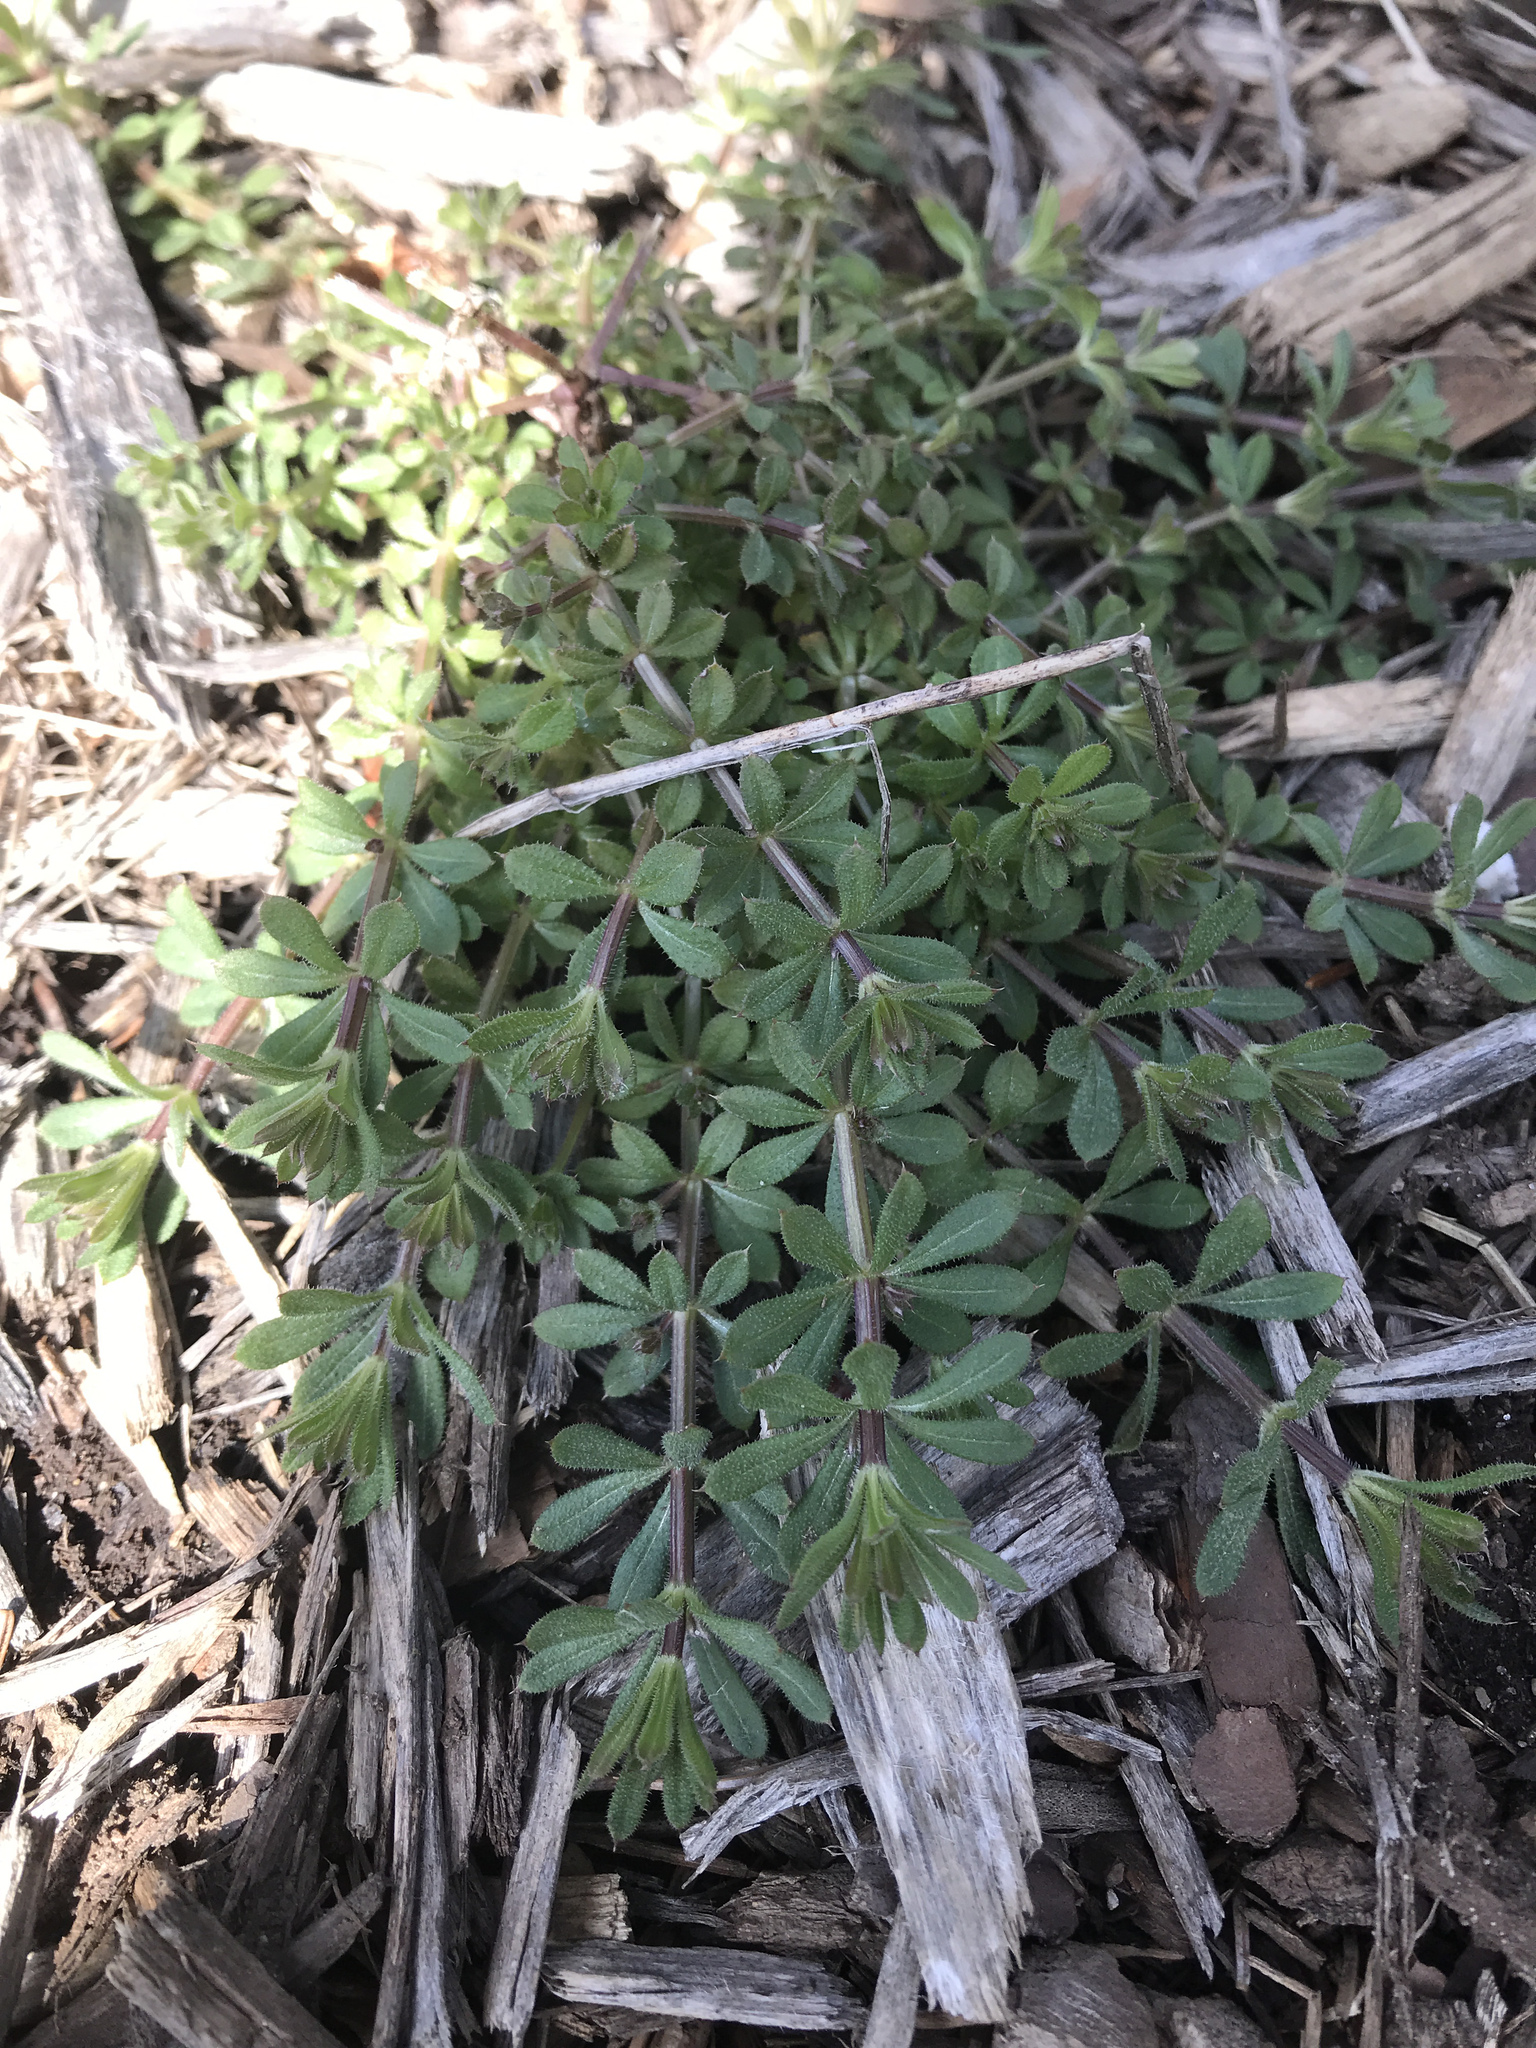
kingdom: Plantae
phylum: Tracheophyta
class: Magnoliopsida
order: Gentianales
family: Rubiaceae
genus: Galium
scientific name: Galium aparine
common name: Cleavers
